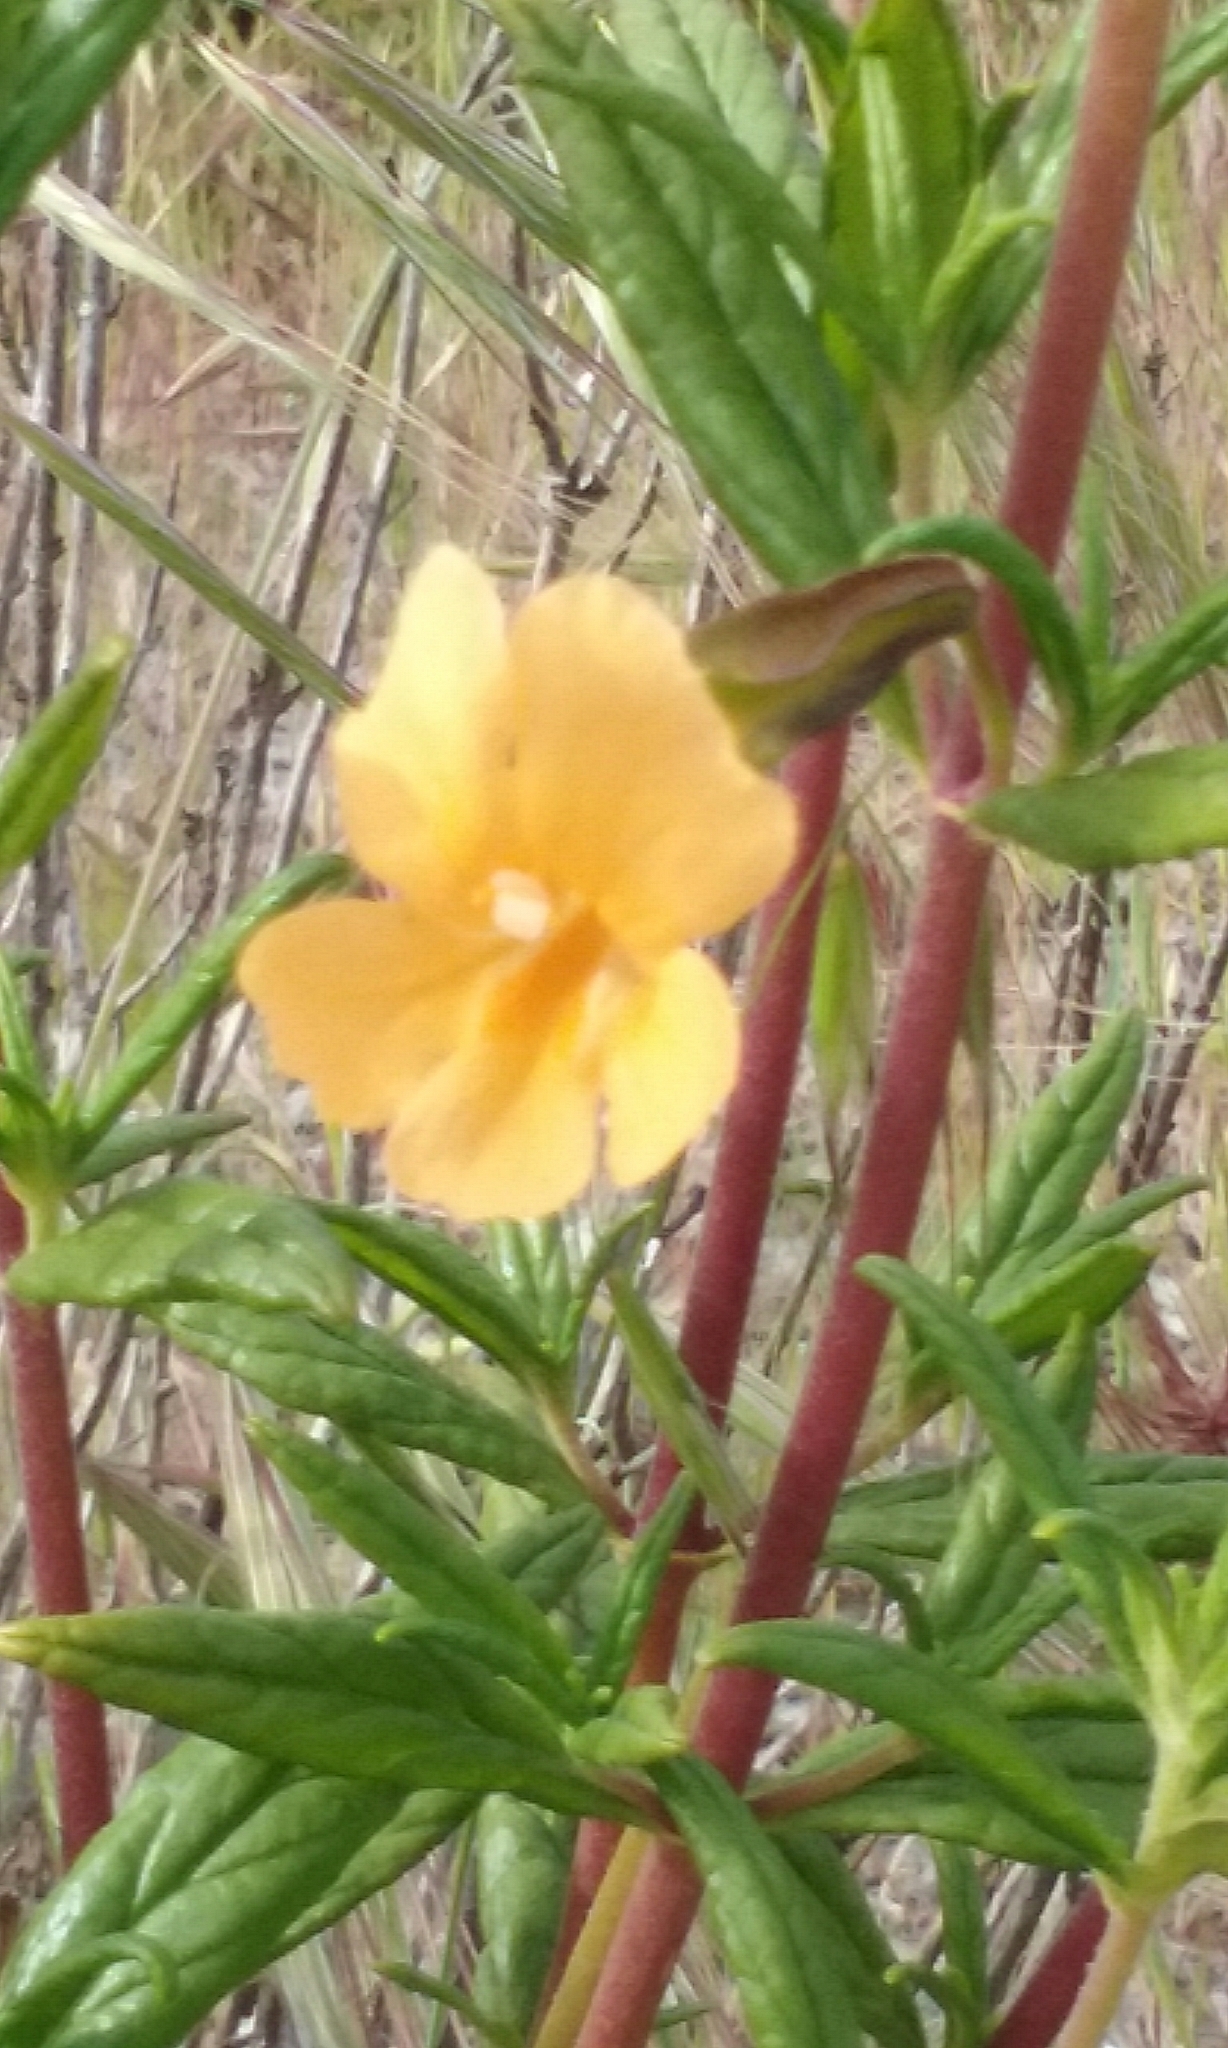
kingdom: Plantae
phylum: Tracheophyta
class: Magnoliopsida
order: Lamiales
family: Phrymaceae
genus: Diplacus
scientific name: Diplacus aurantiacus
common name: Bush monkey-flower
